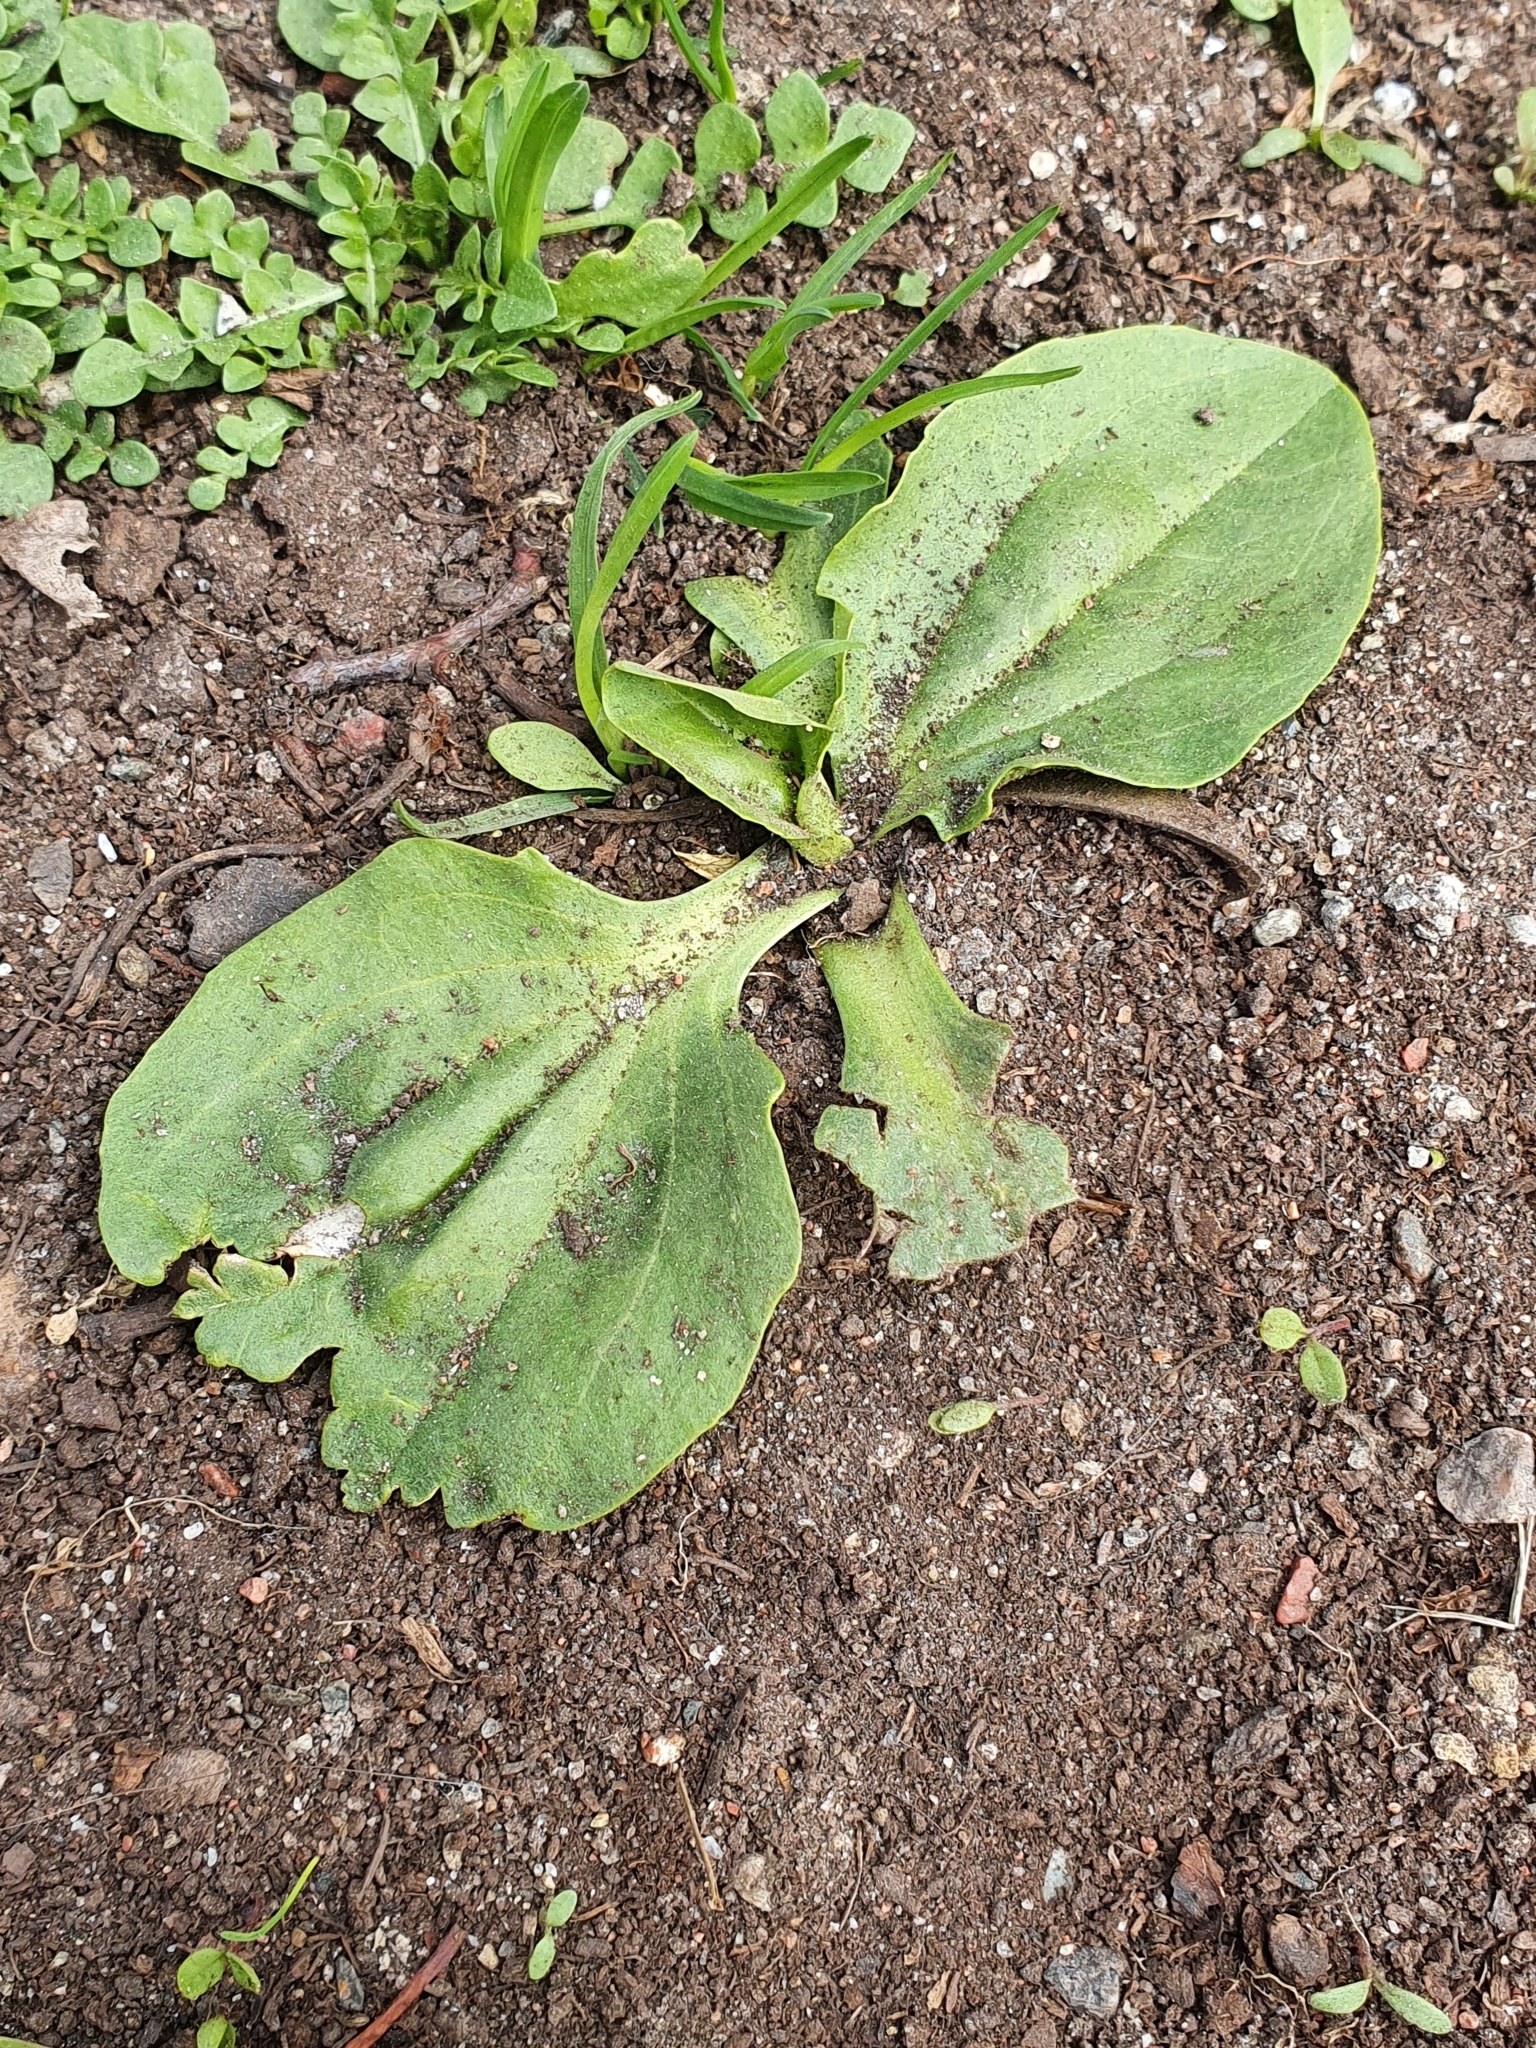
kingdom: Plantae
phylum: Tracheophyta
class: Magnoliopsida
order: Lamiales
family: Plantaginaceae
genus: Plantago
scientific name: Plantago major
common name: Common plantain
